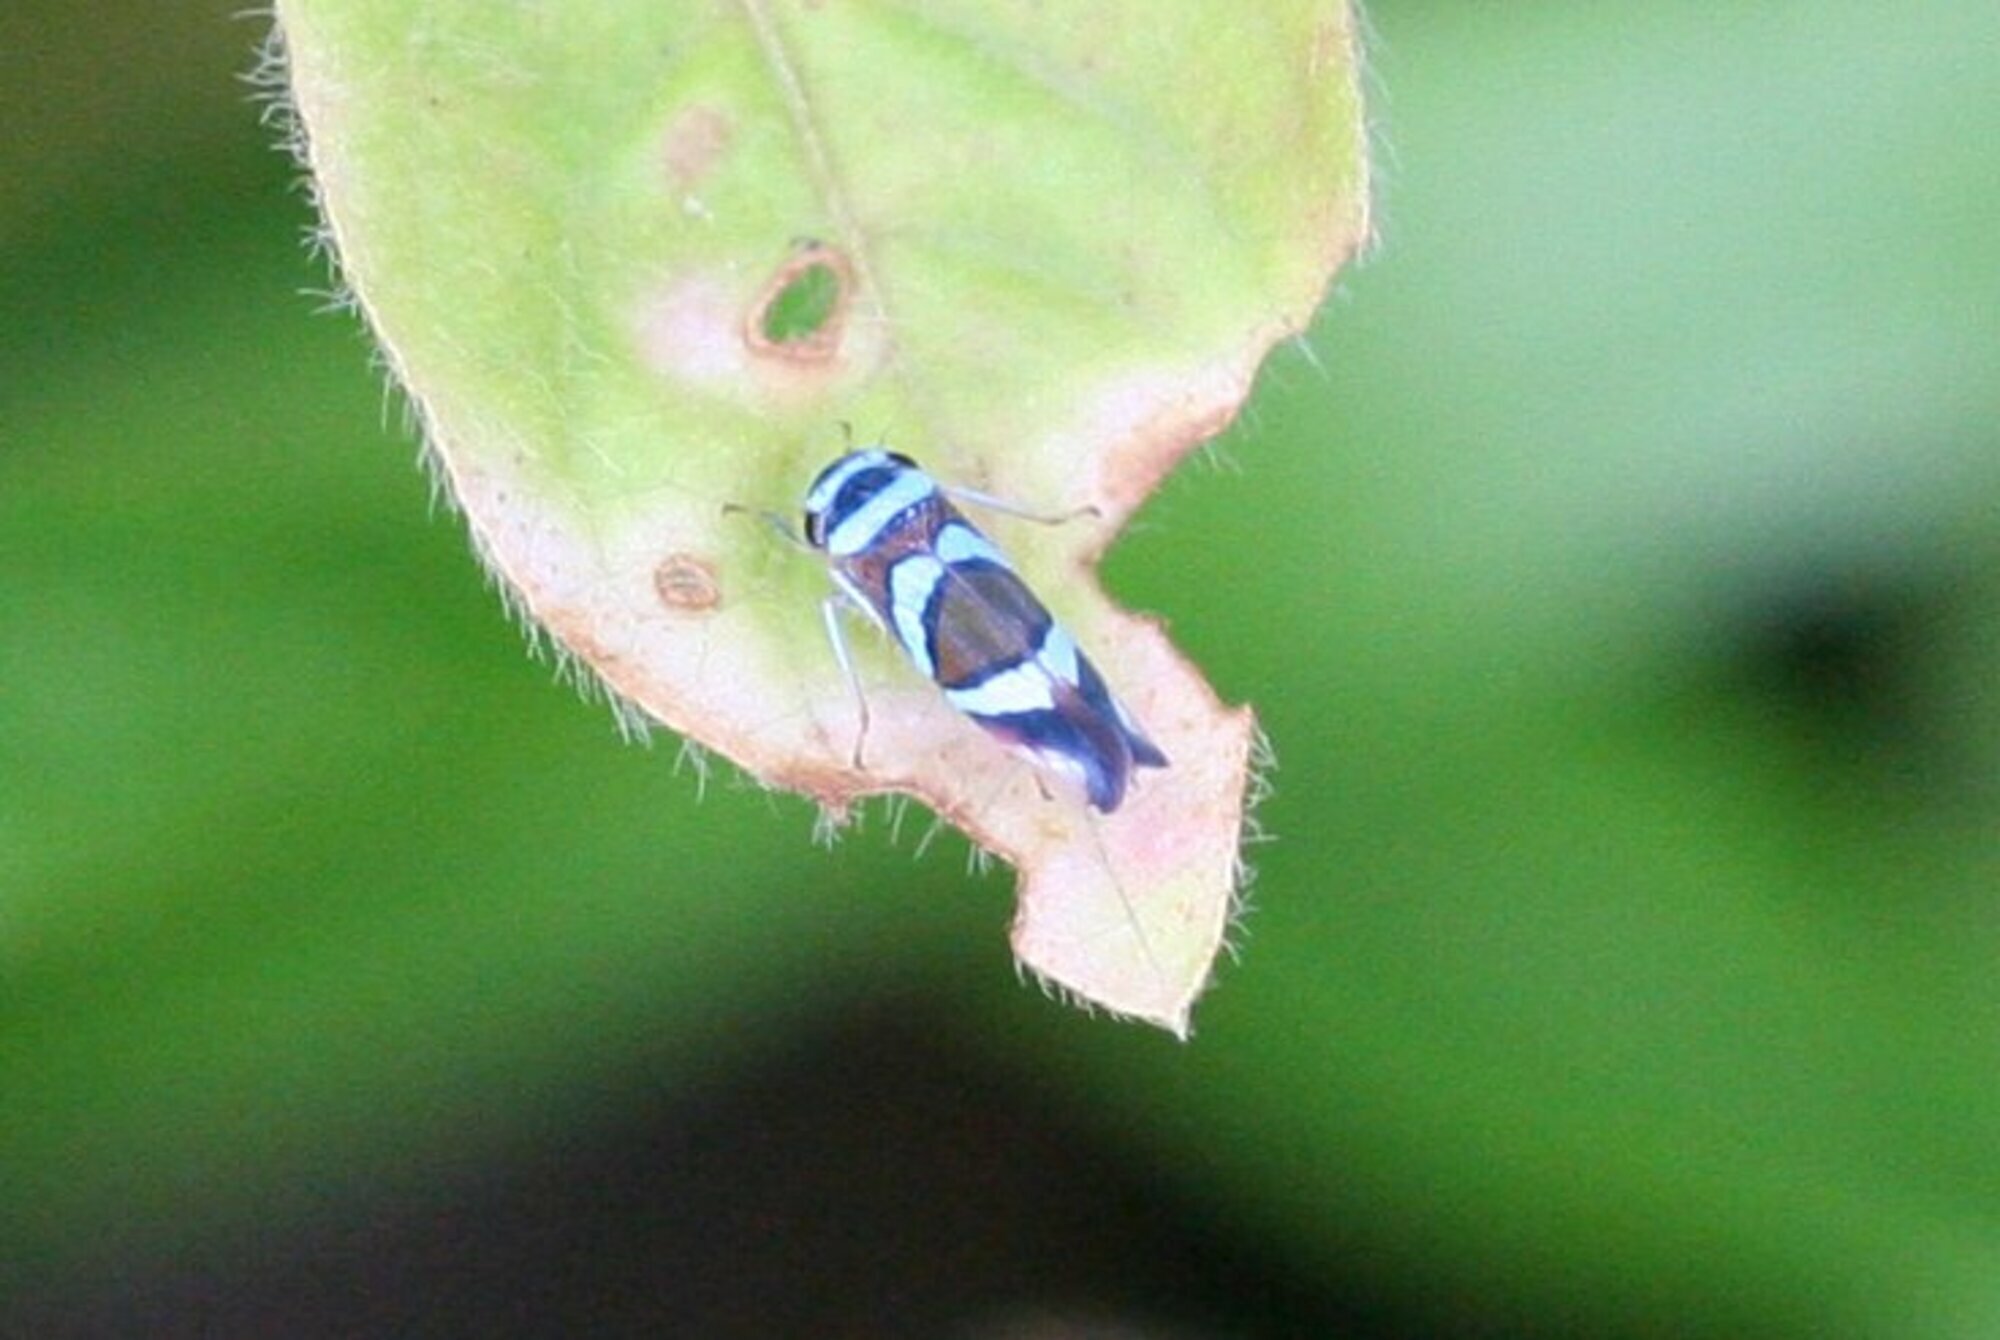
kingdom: Animalia
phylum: Arthropoda
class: Insecta
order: Hemiptera
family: Cicadellidae
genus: Macugonalia
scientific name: Macugonalia moesta
